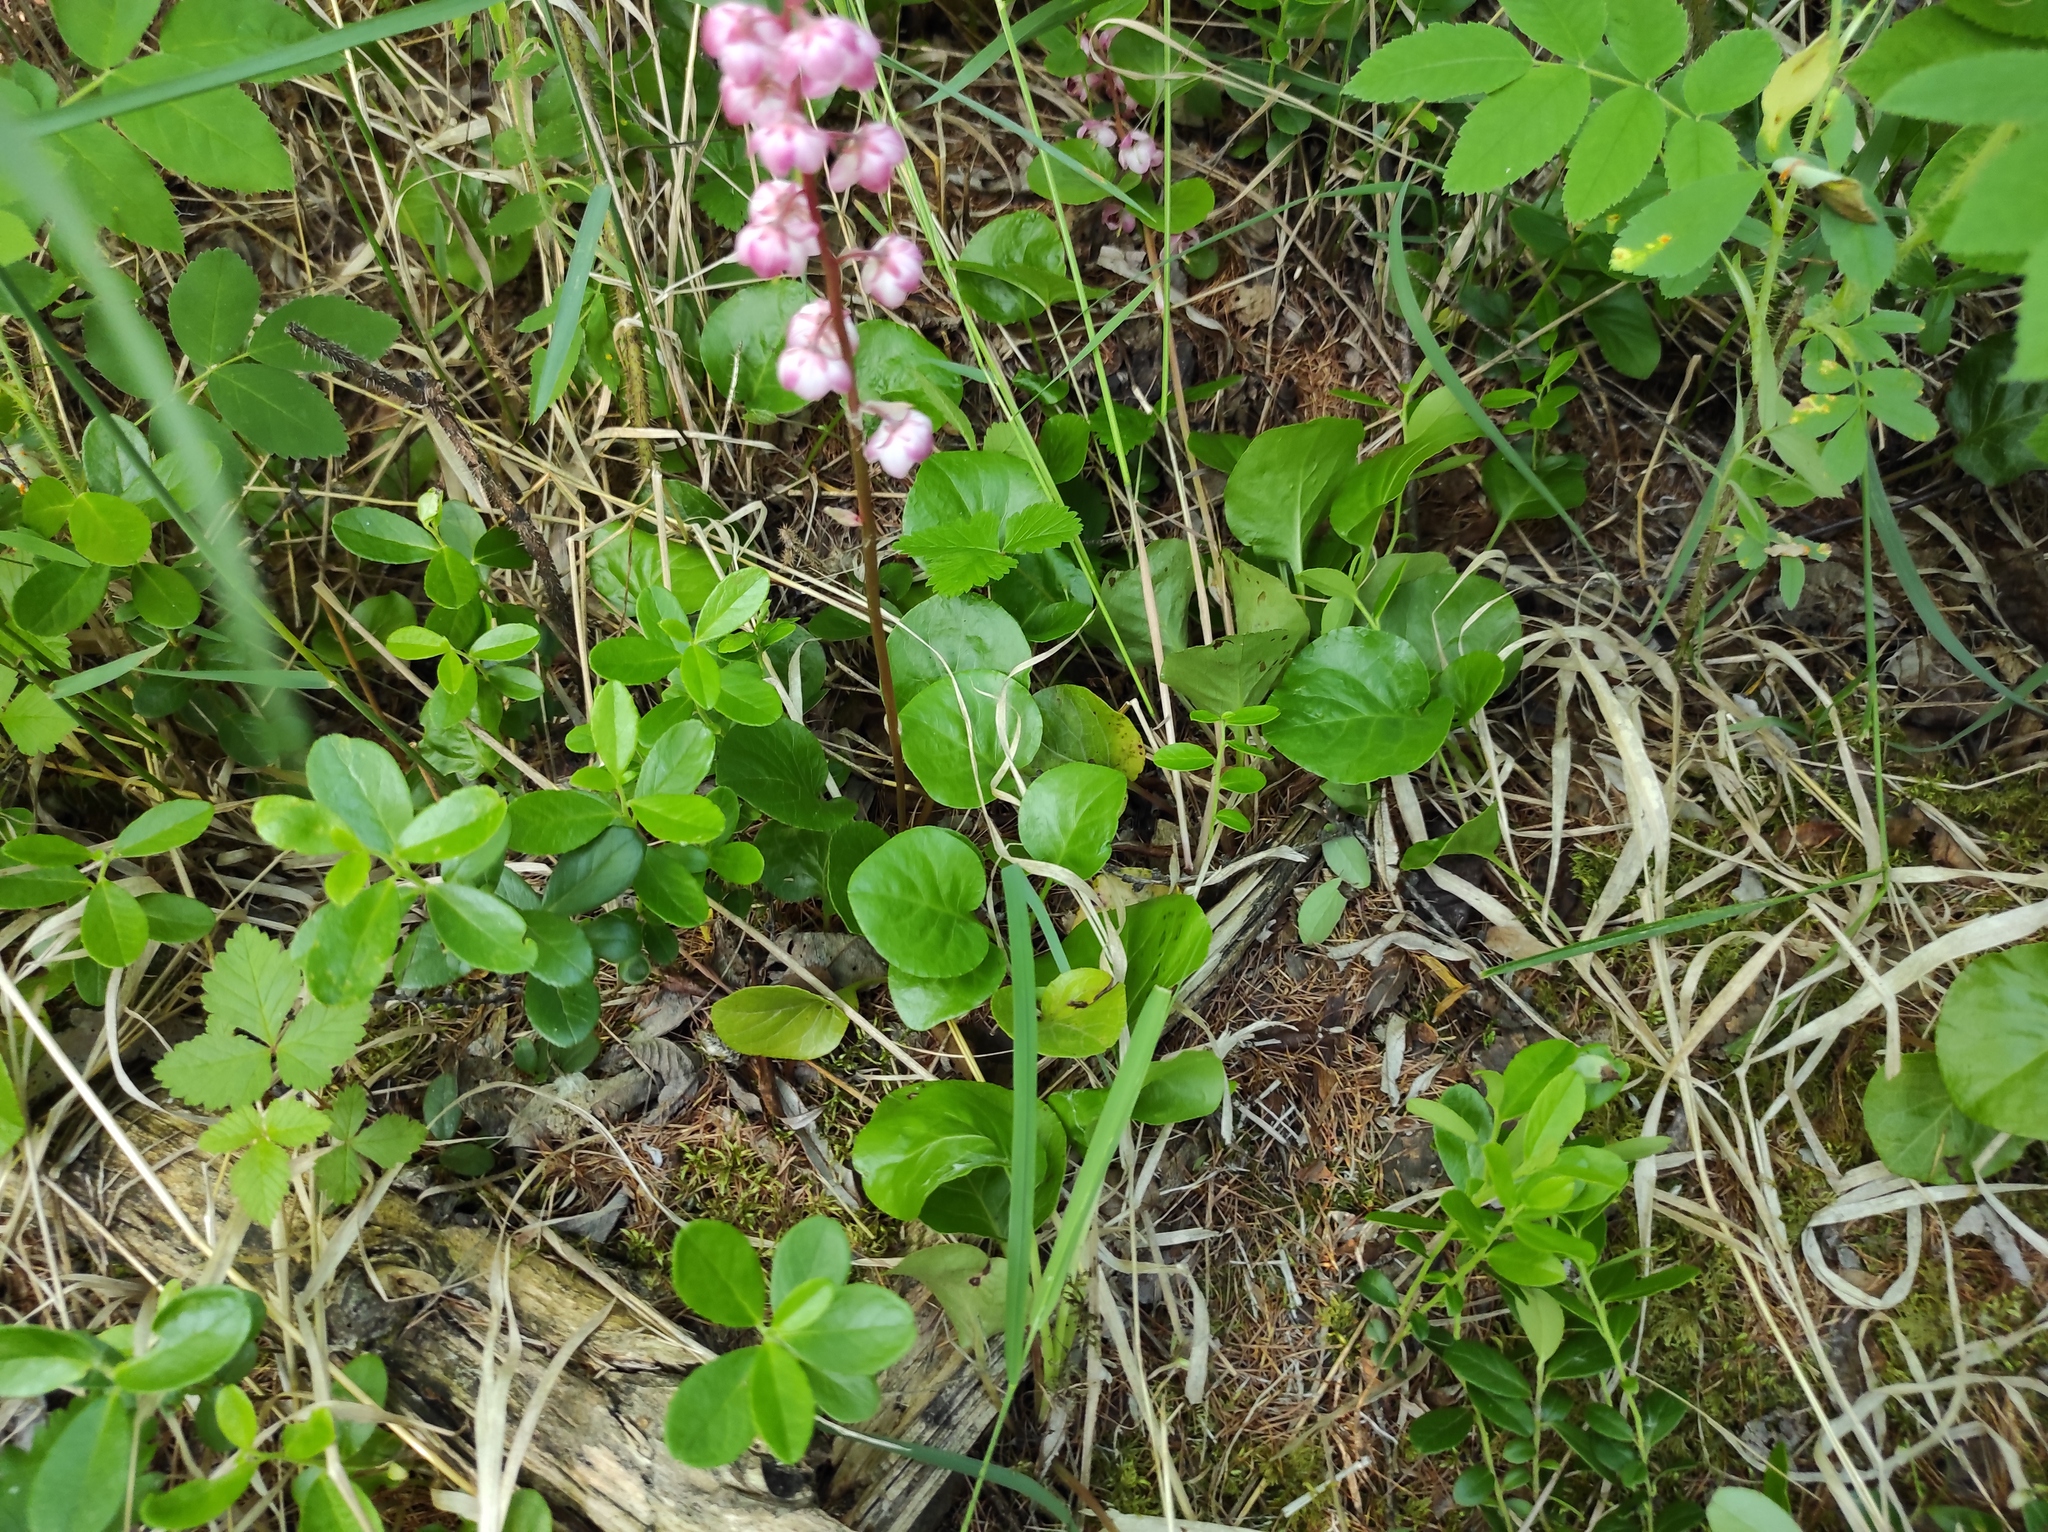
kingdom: Plantae
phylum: Tracheophyta
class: Magnoliopsida
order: Ericales
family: Ericaceae
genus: Pyrola
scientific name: Pyrola asarifolia
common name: Bog wintergreen
